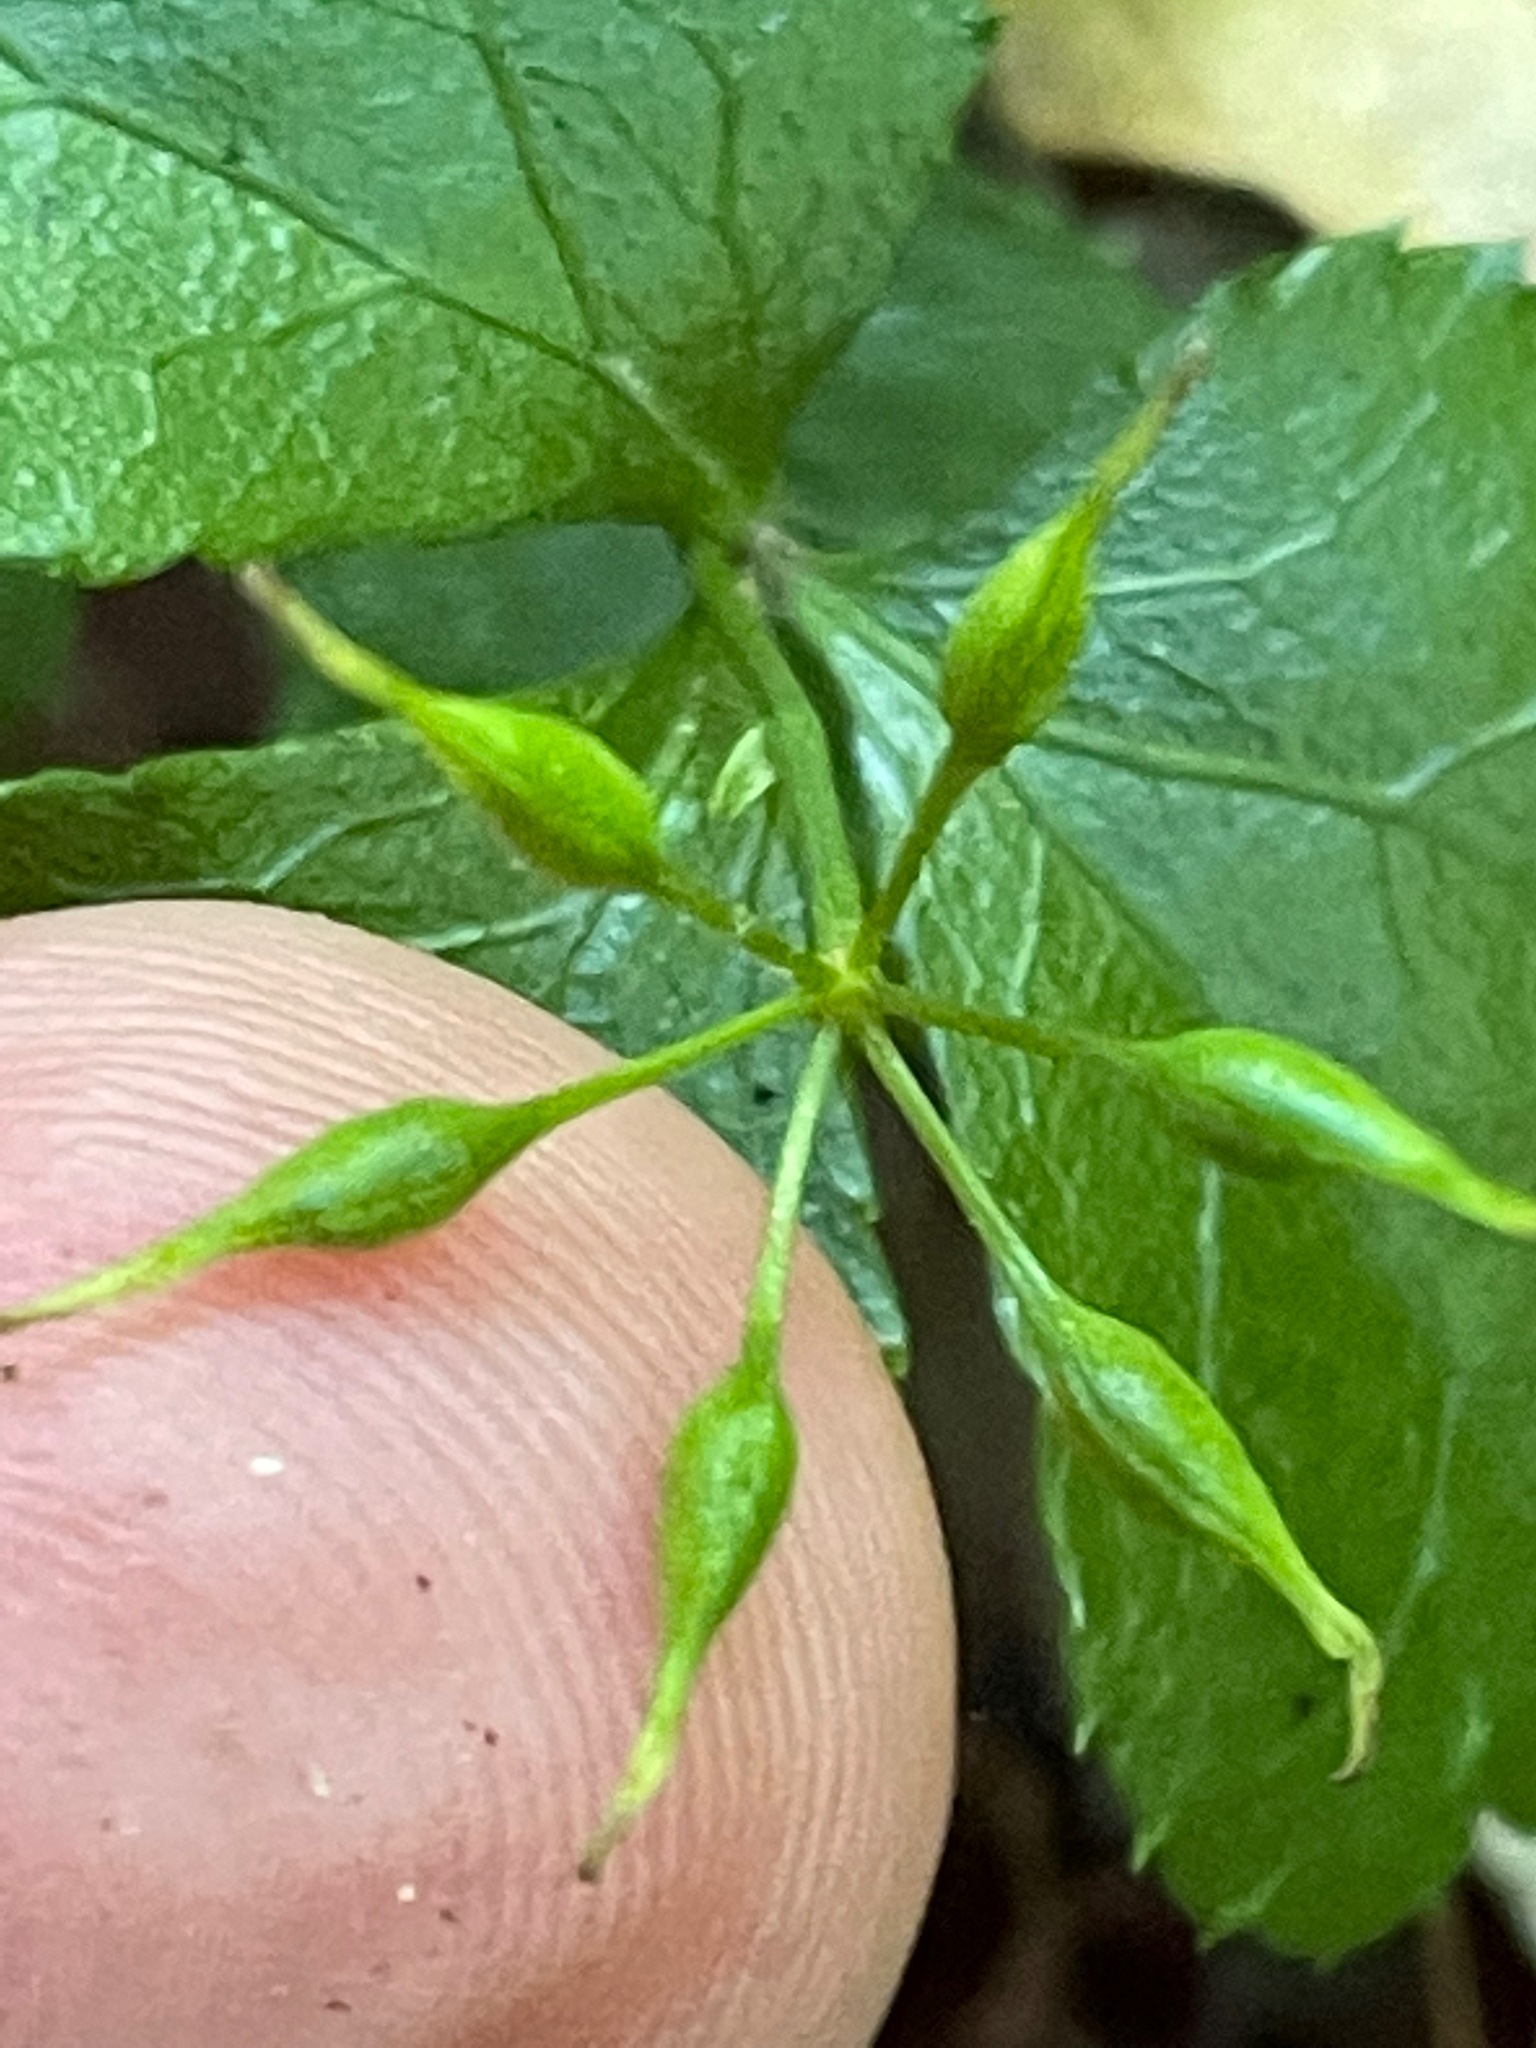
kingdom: Plantae
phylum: Tracheophyta
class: Magnoliopsida
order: Ranunculales
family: Ranunculaceae
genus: Coptis
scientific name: Coptis trifolia
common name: Canker-root
